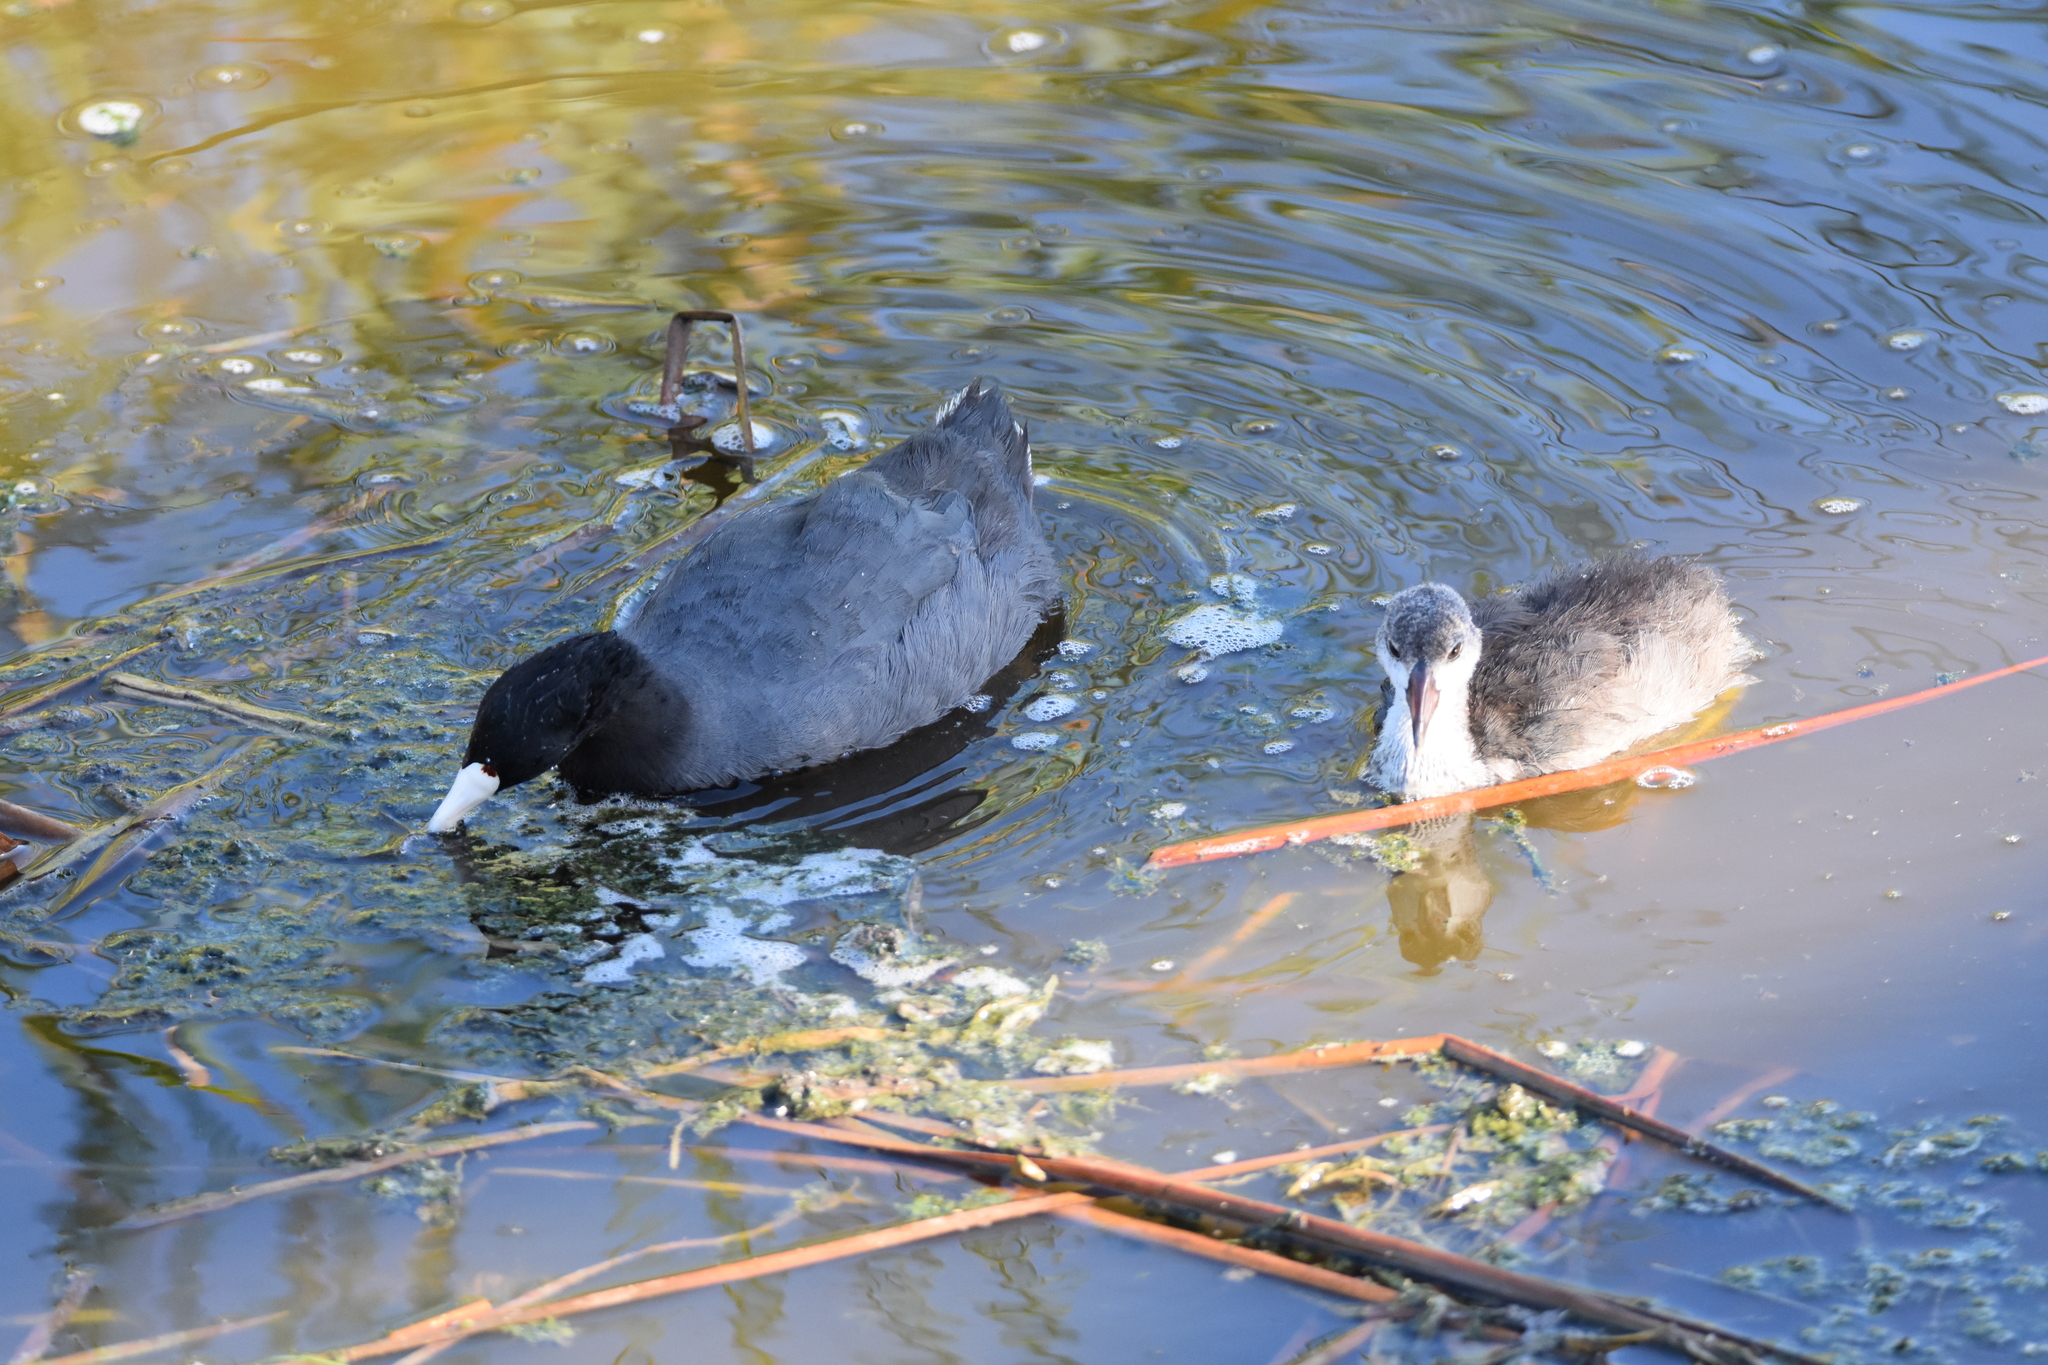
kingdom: Animalia
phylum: Chordata
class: Aves
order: Gruiformes
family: Rallidae
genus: Fulica
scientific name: Fulica americana
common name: American coot
